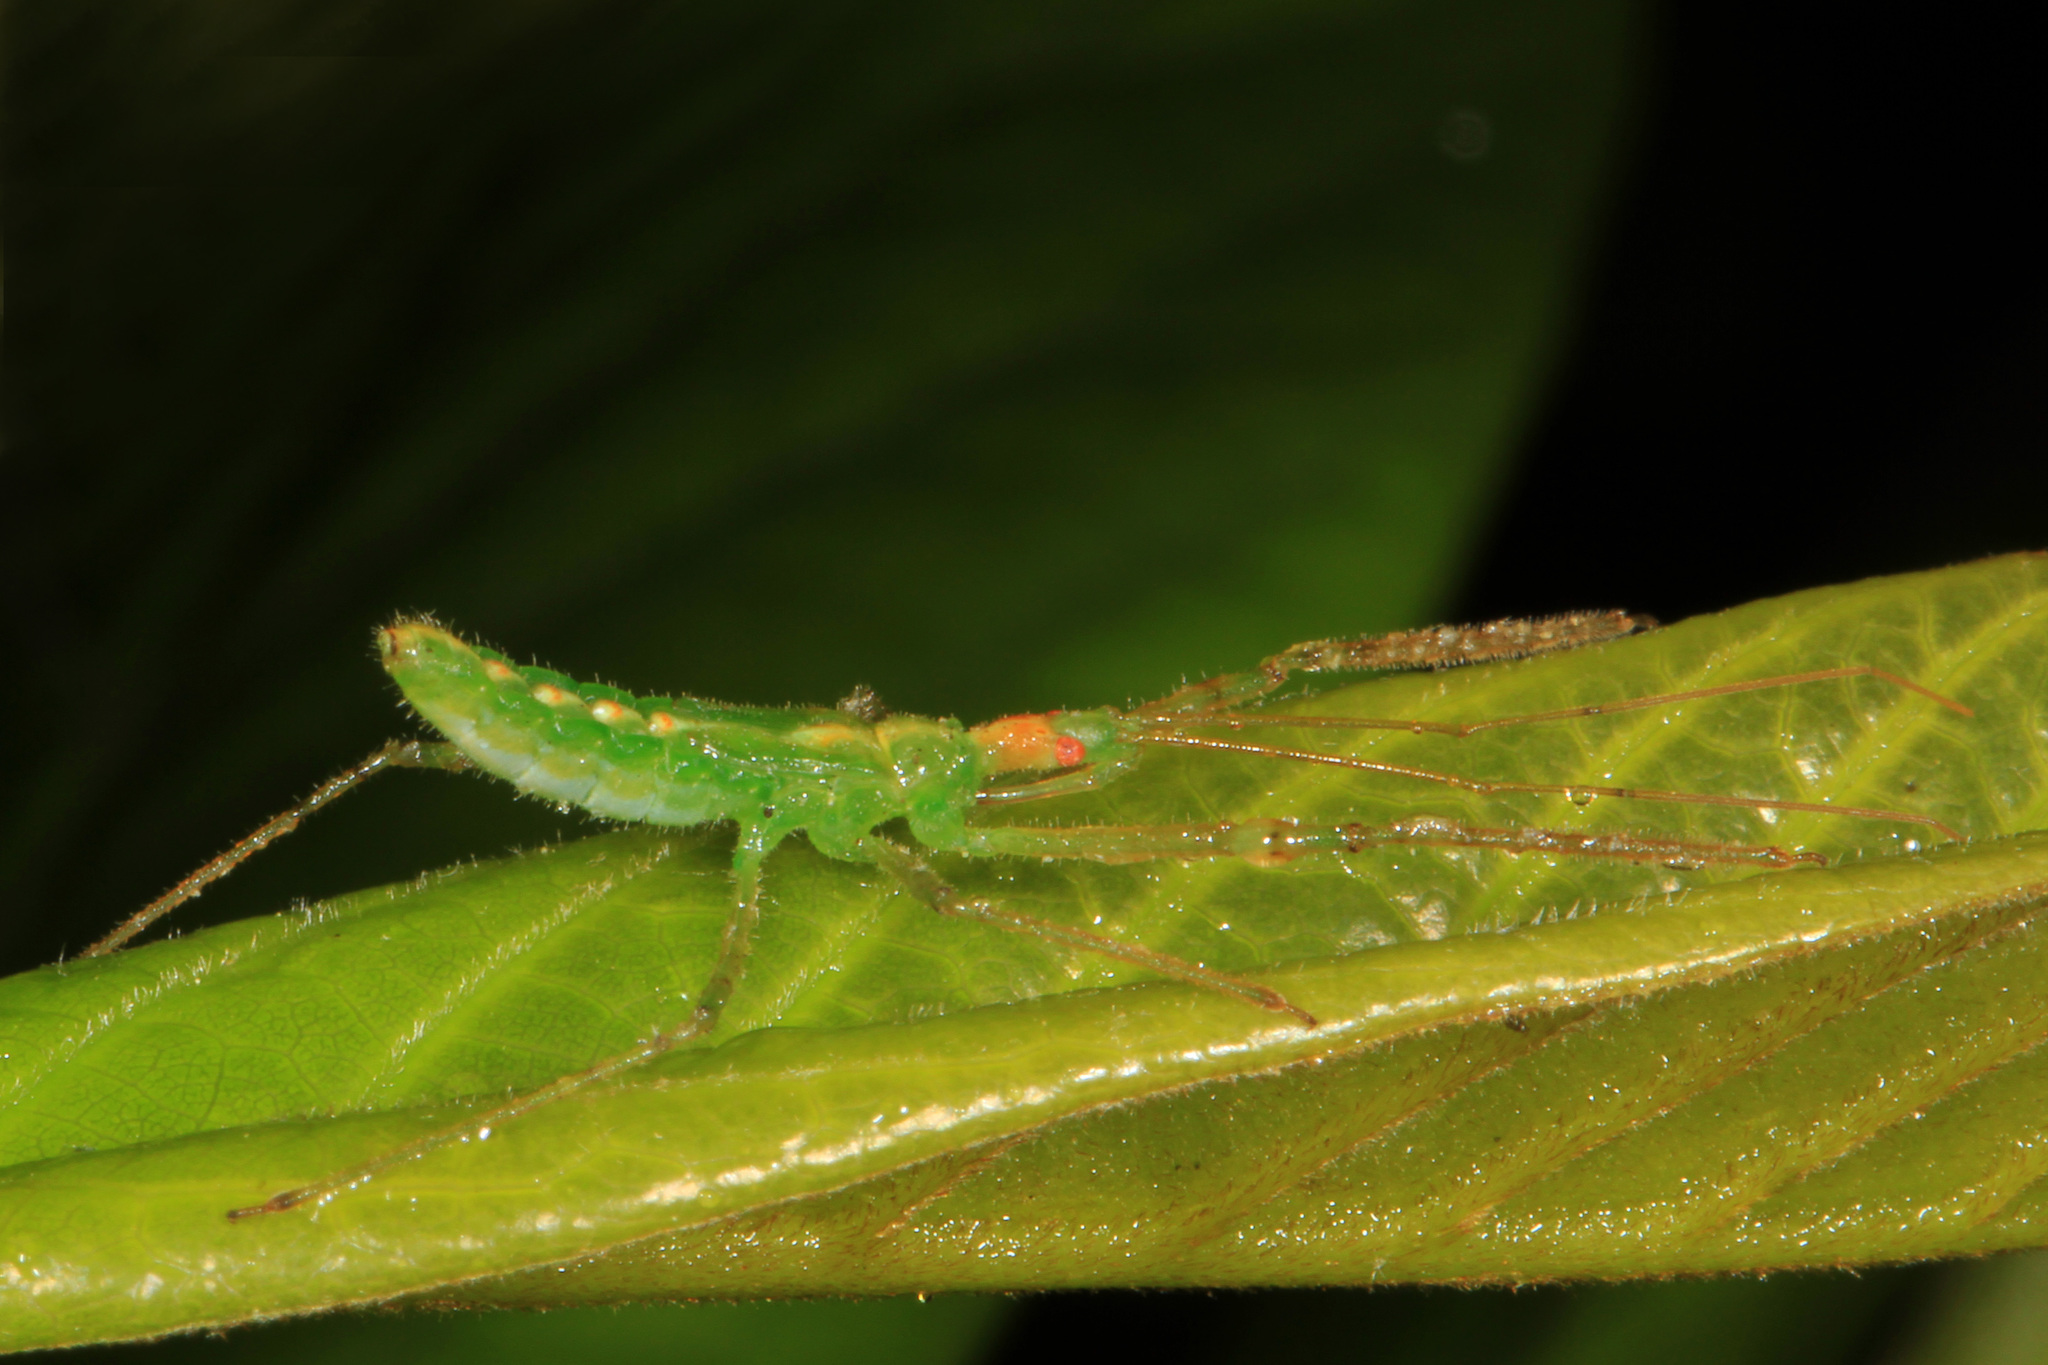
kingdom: Animalia
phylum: Arthropoda
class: Insecta
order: Hemiptera
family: Reduviidae
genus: Zelus
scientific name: Zelus luridus
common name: Pale green assassin bug
